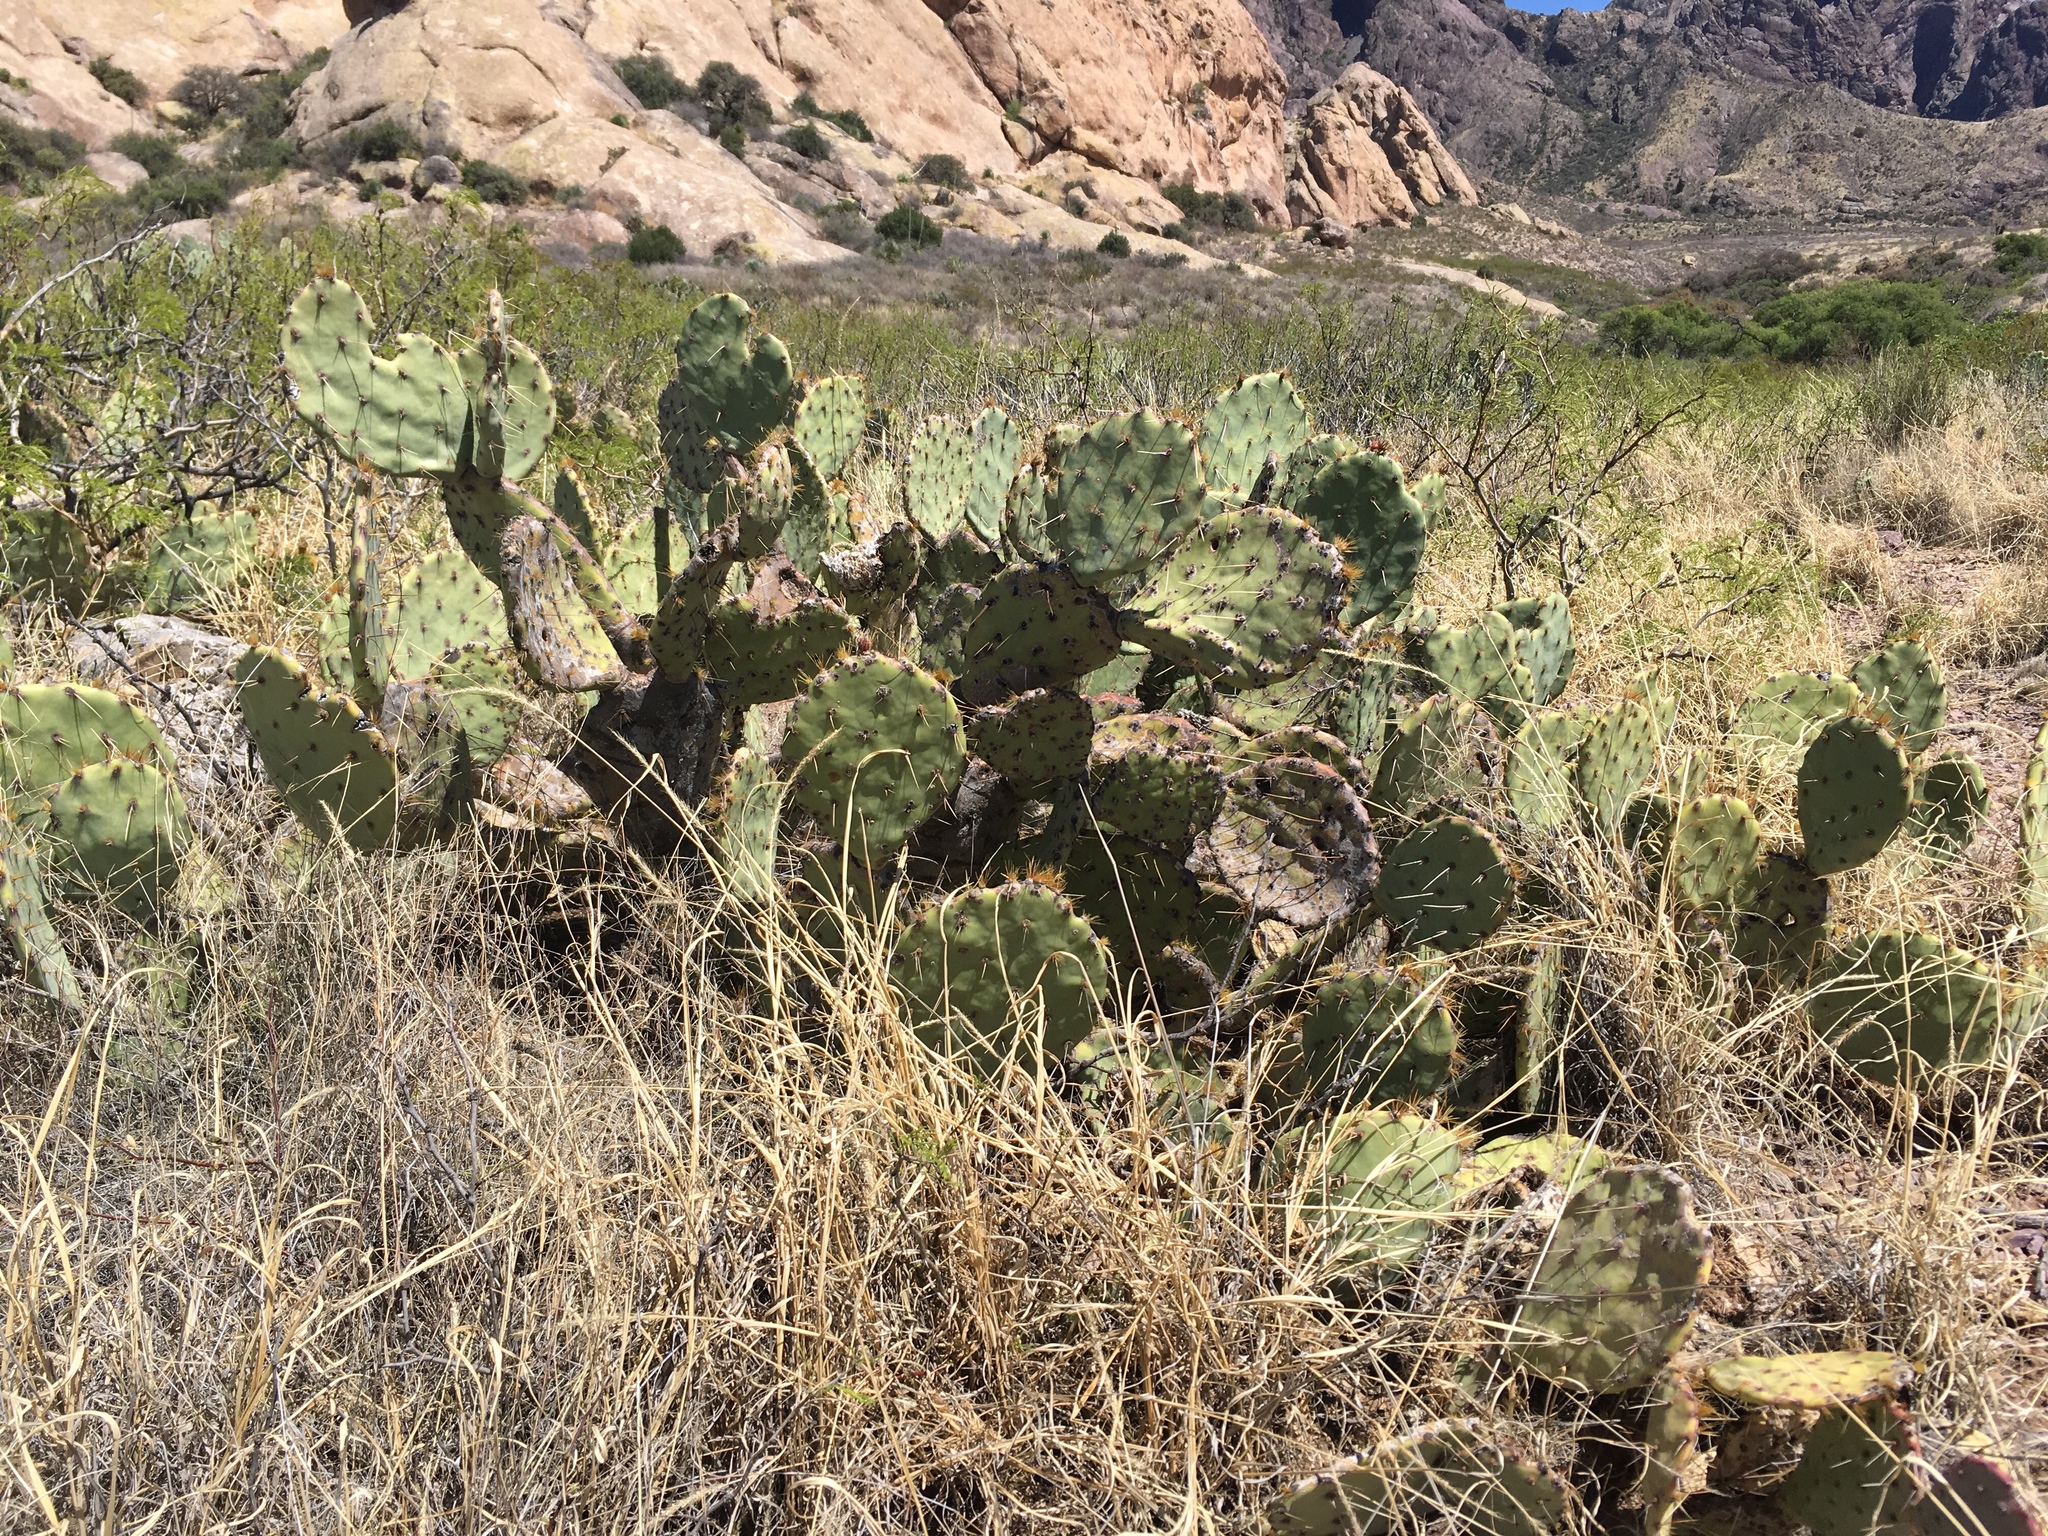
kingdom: Plantae
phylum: Tracheophyta
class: Magnoliopsida
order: Caryophyllales
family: Cactaceae
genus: Opuntia
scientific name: Opuntia engelmannii
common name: Cactus-apple
